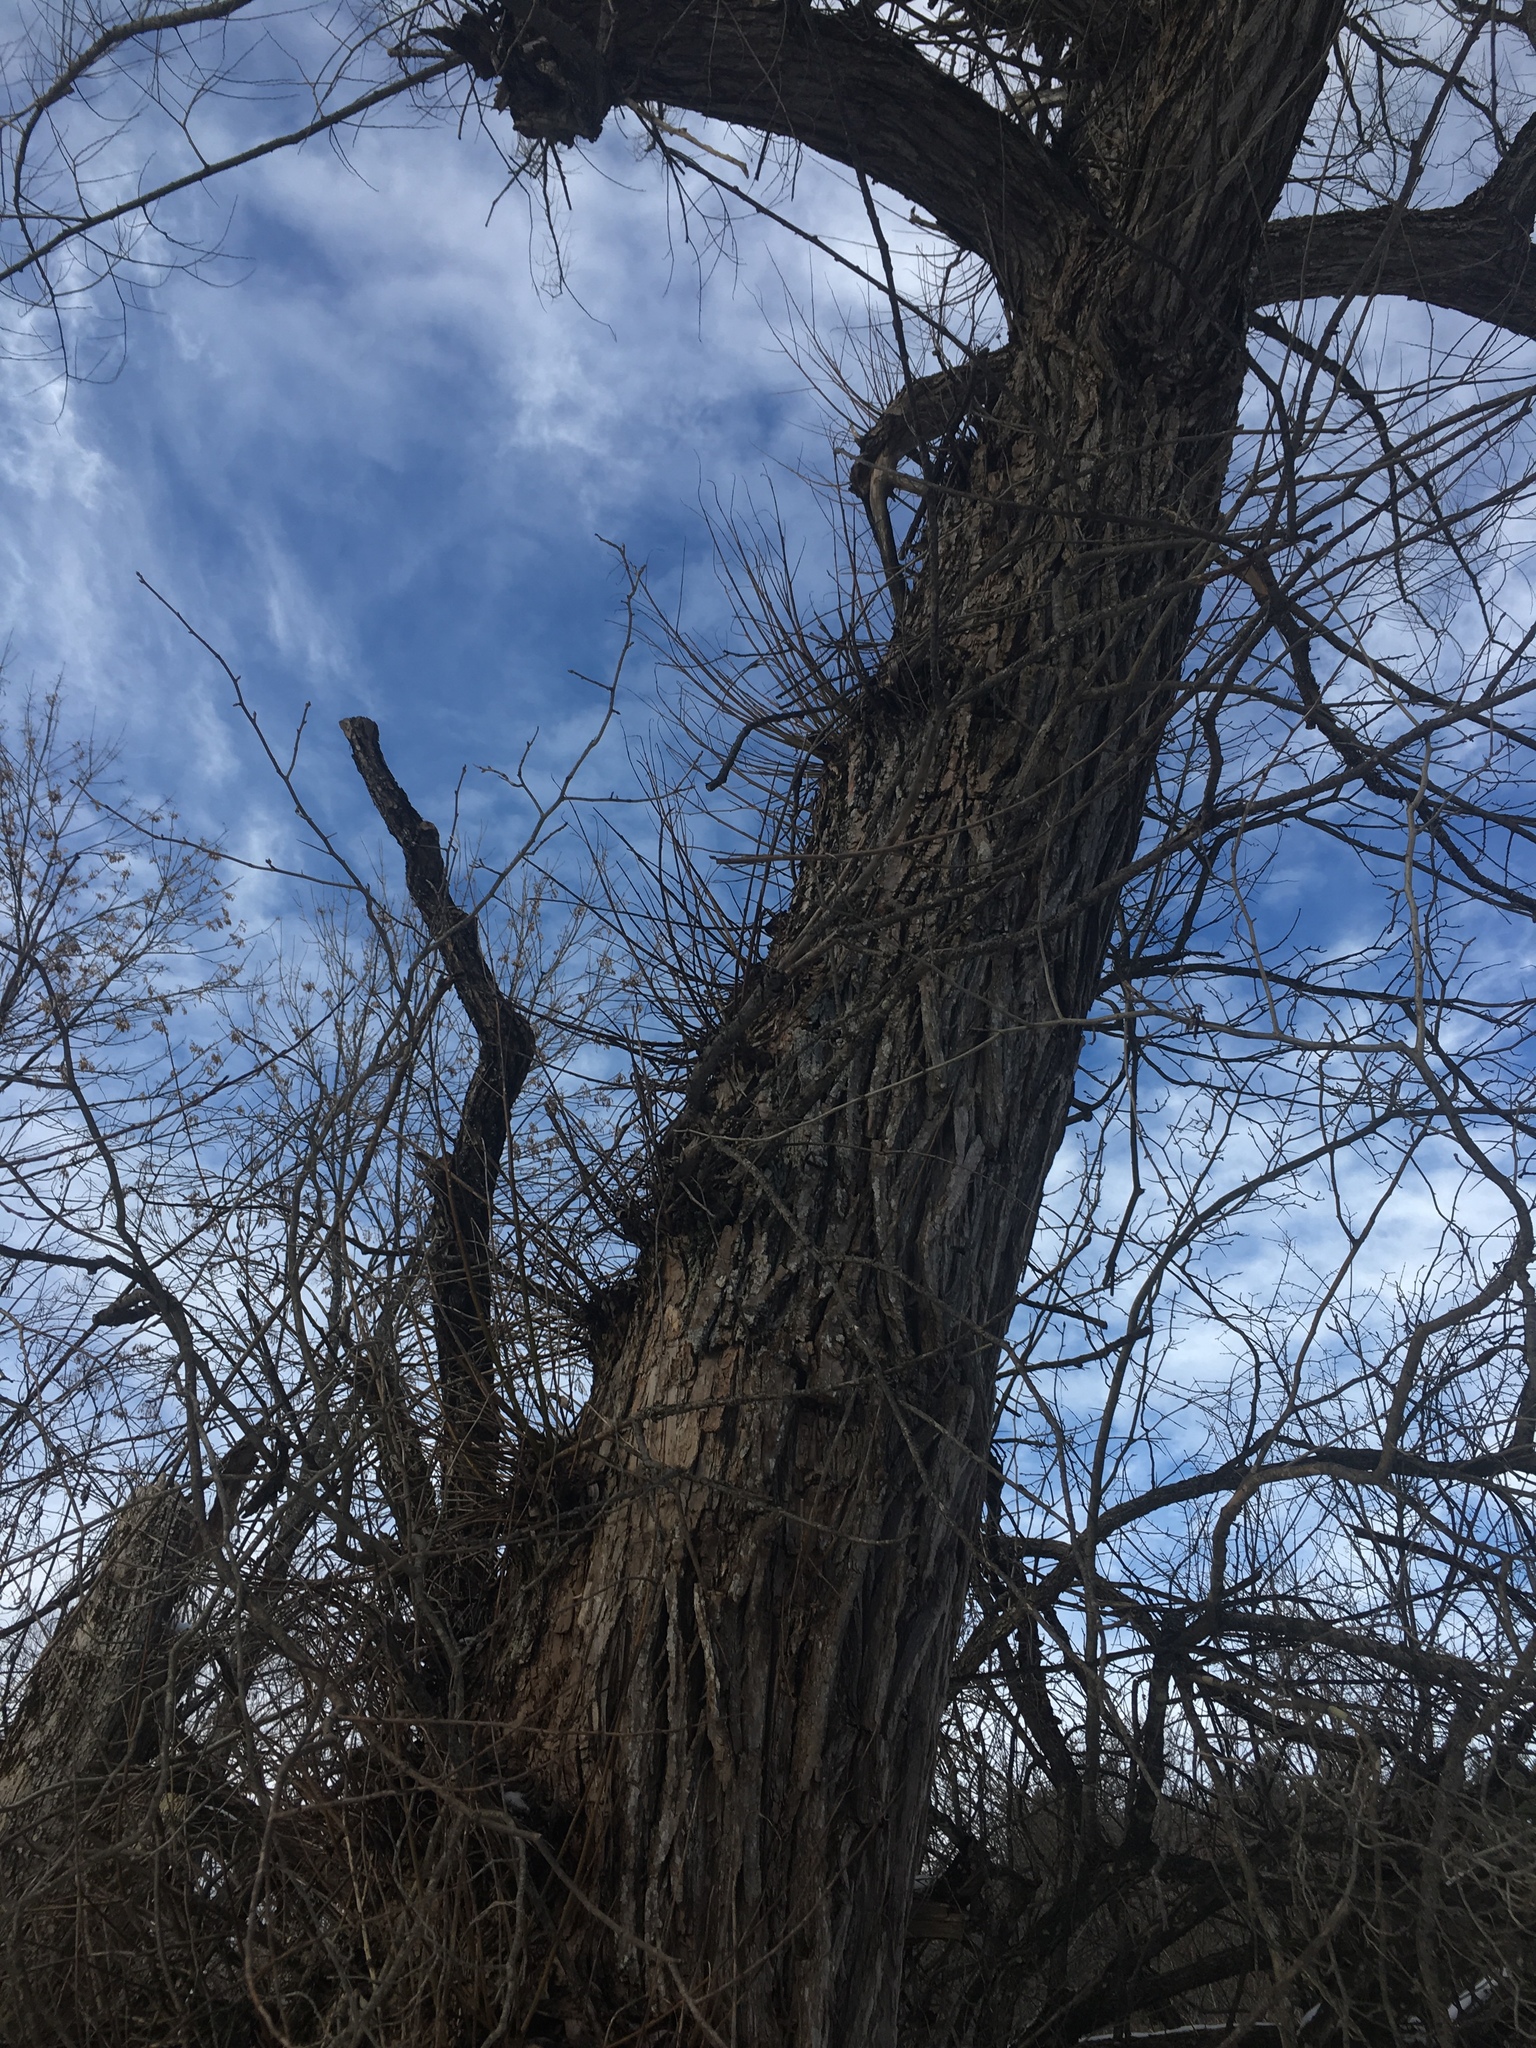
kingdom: Plantae
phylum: Tracheophyta
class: Magnoliopsida
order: Malpighiales
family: Salicaceae
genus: Salix
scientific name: Salix nigra
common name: Black willow
